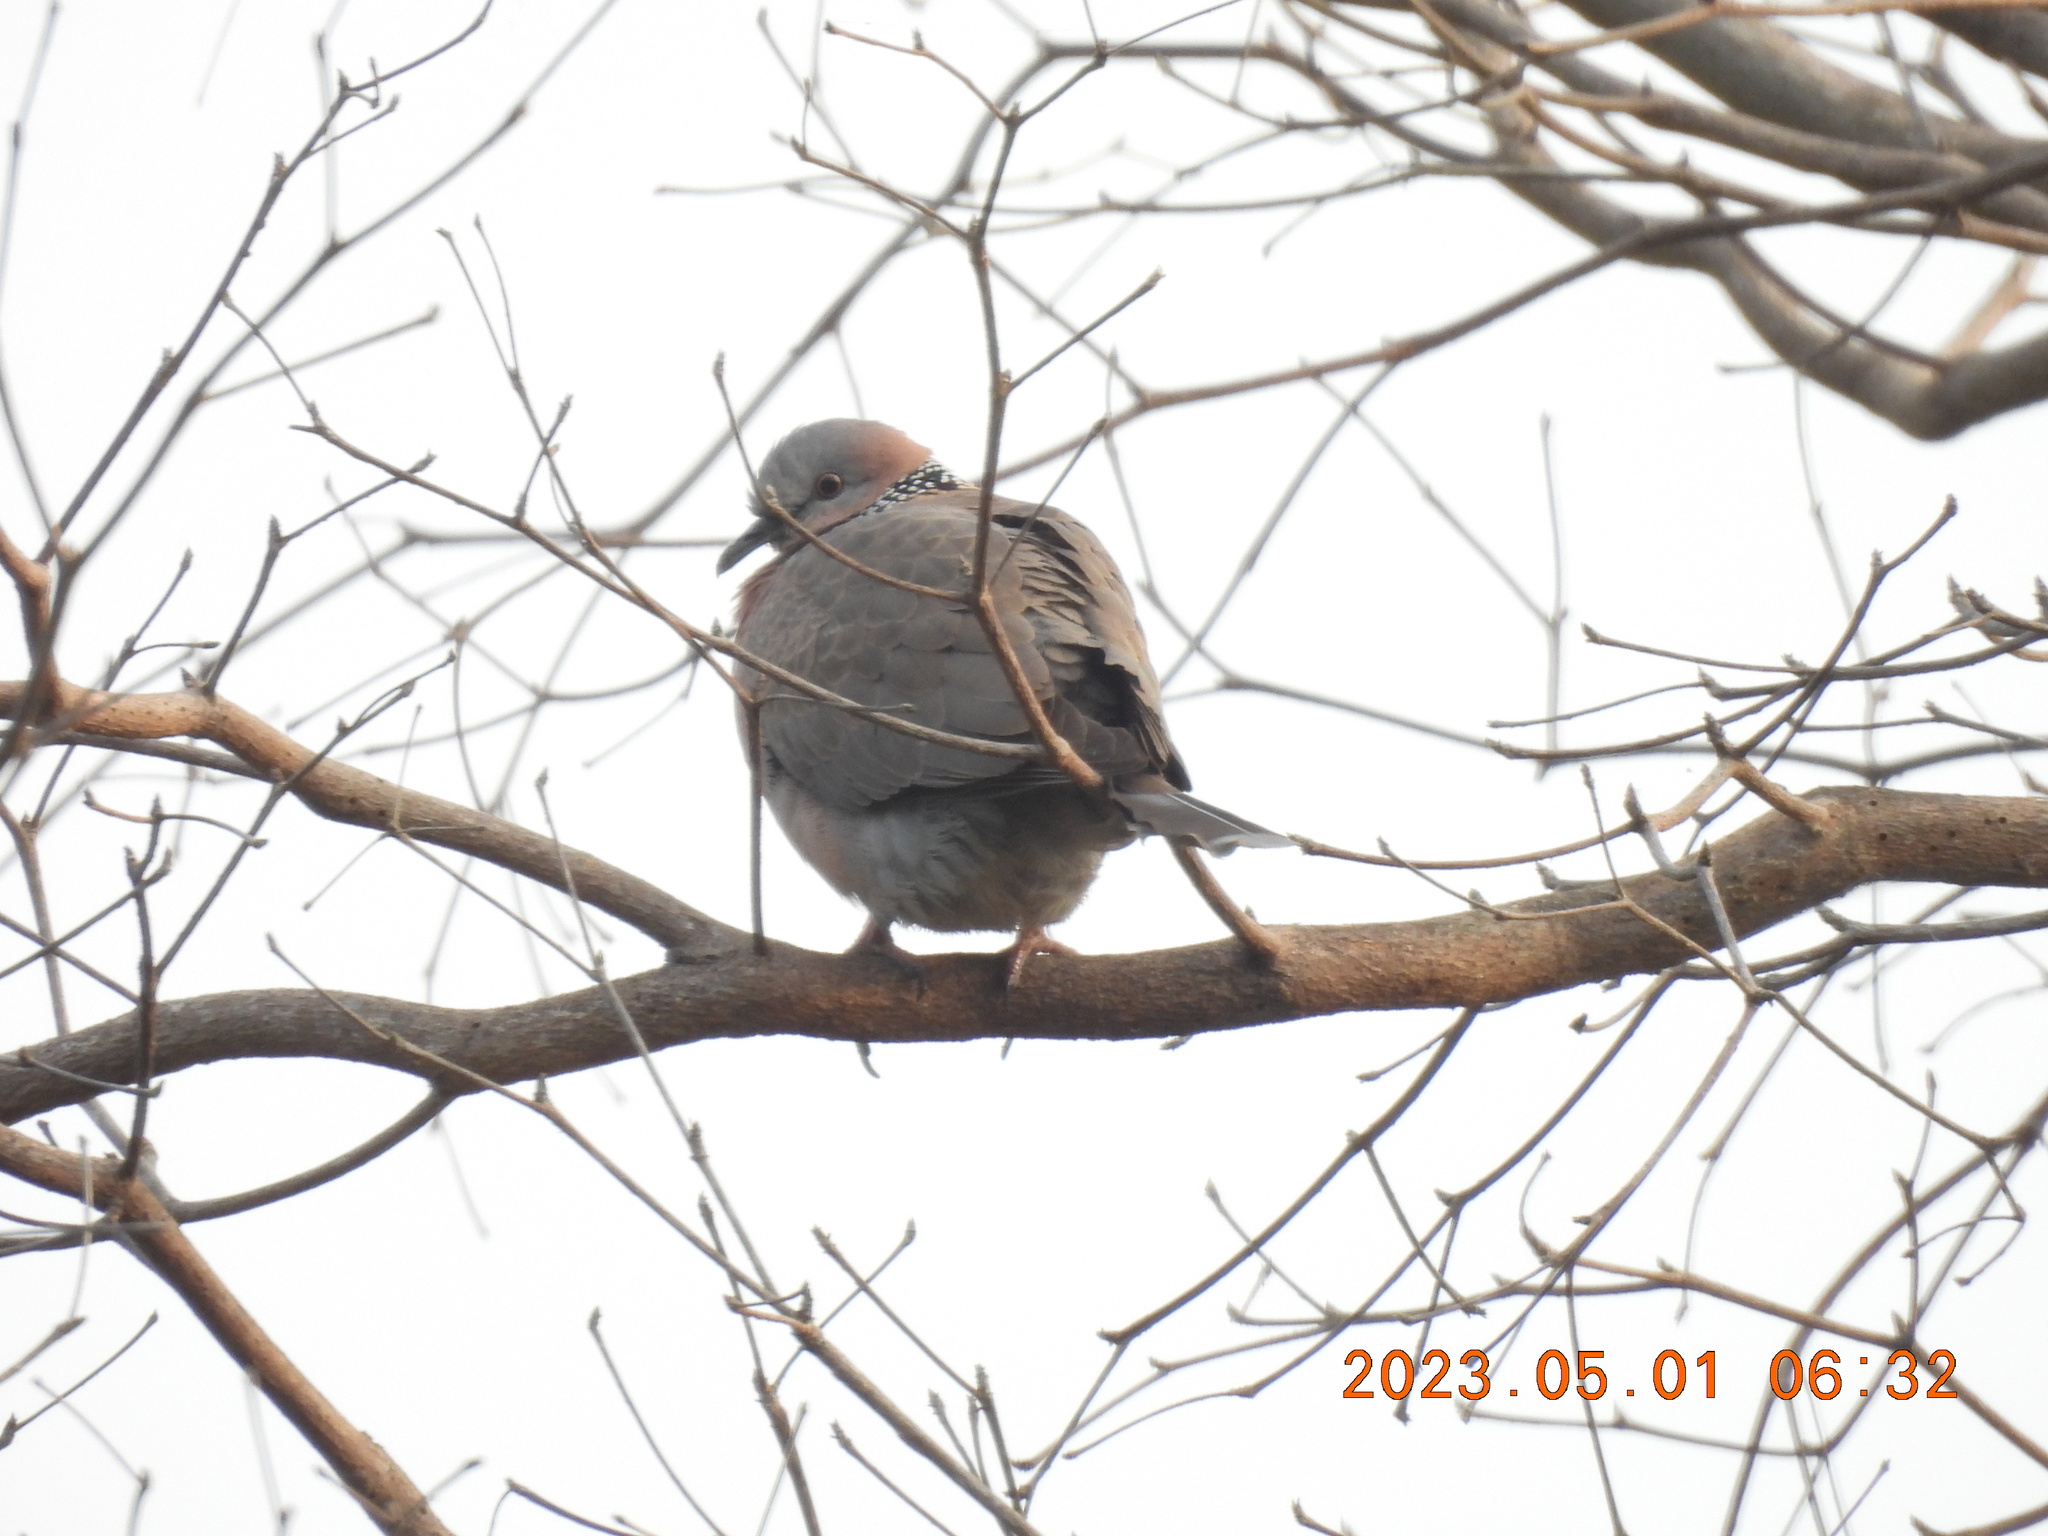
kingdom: Animalia
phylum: Chordata
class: Aves
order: Columbiformes
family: Columbidae
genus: Spilopelia
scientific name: Spilopelia chinensis
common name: Spotted dove
